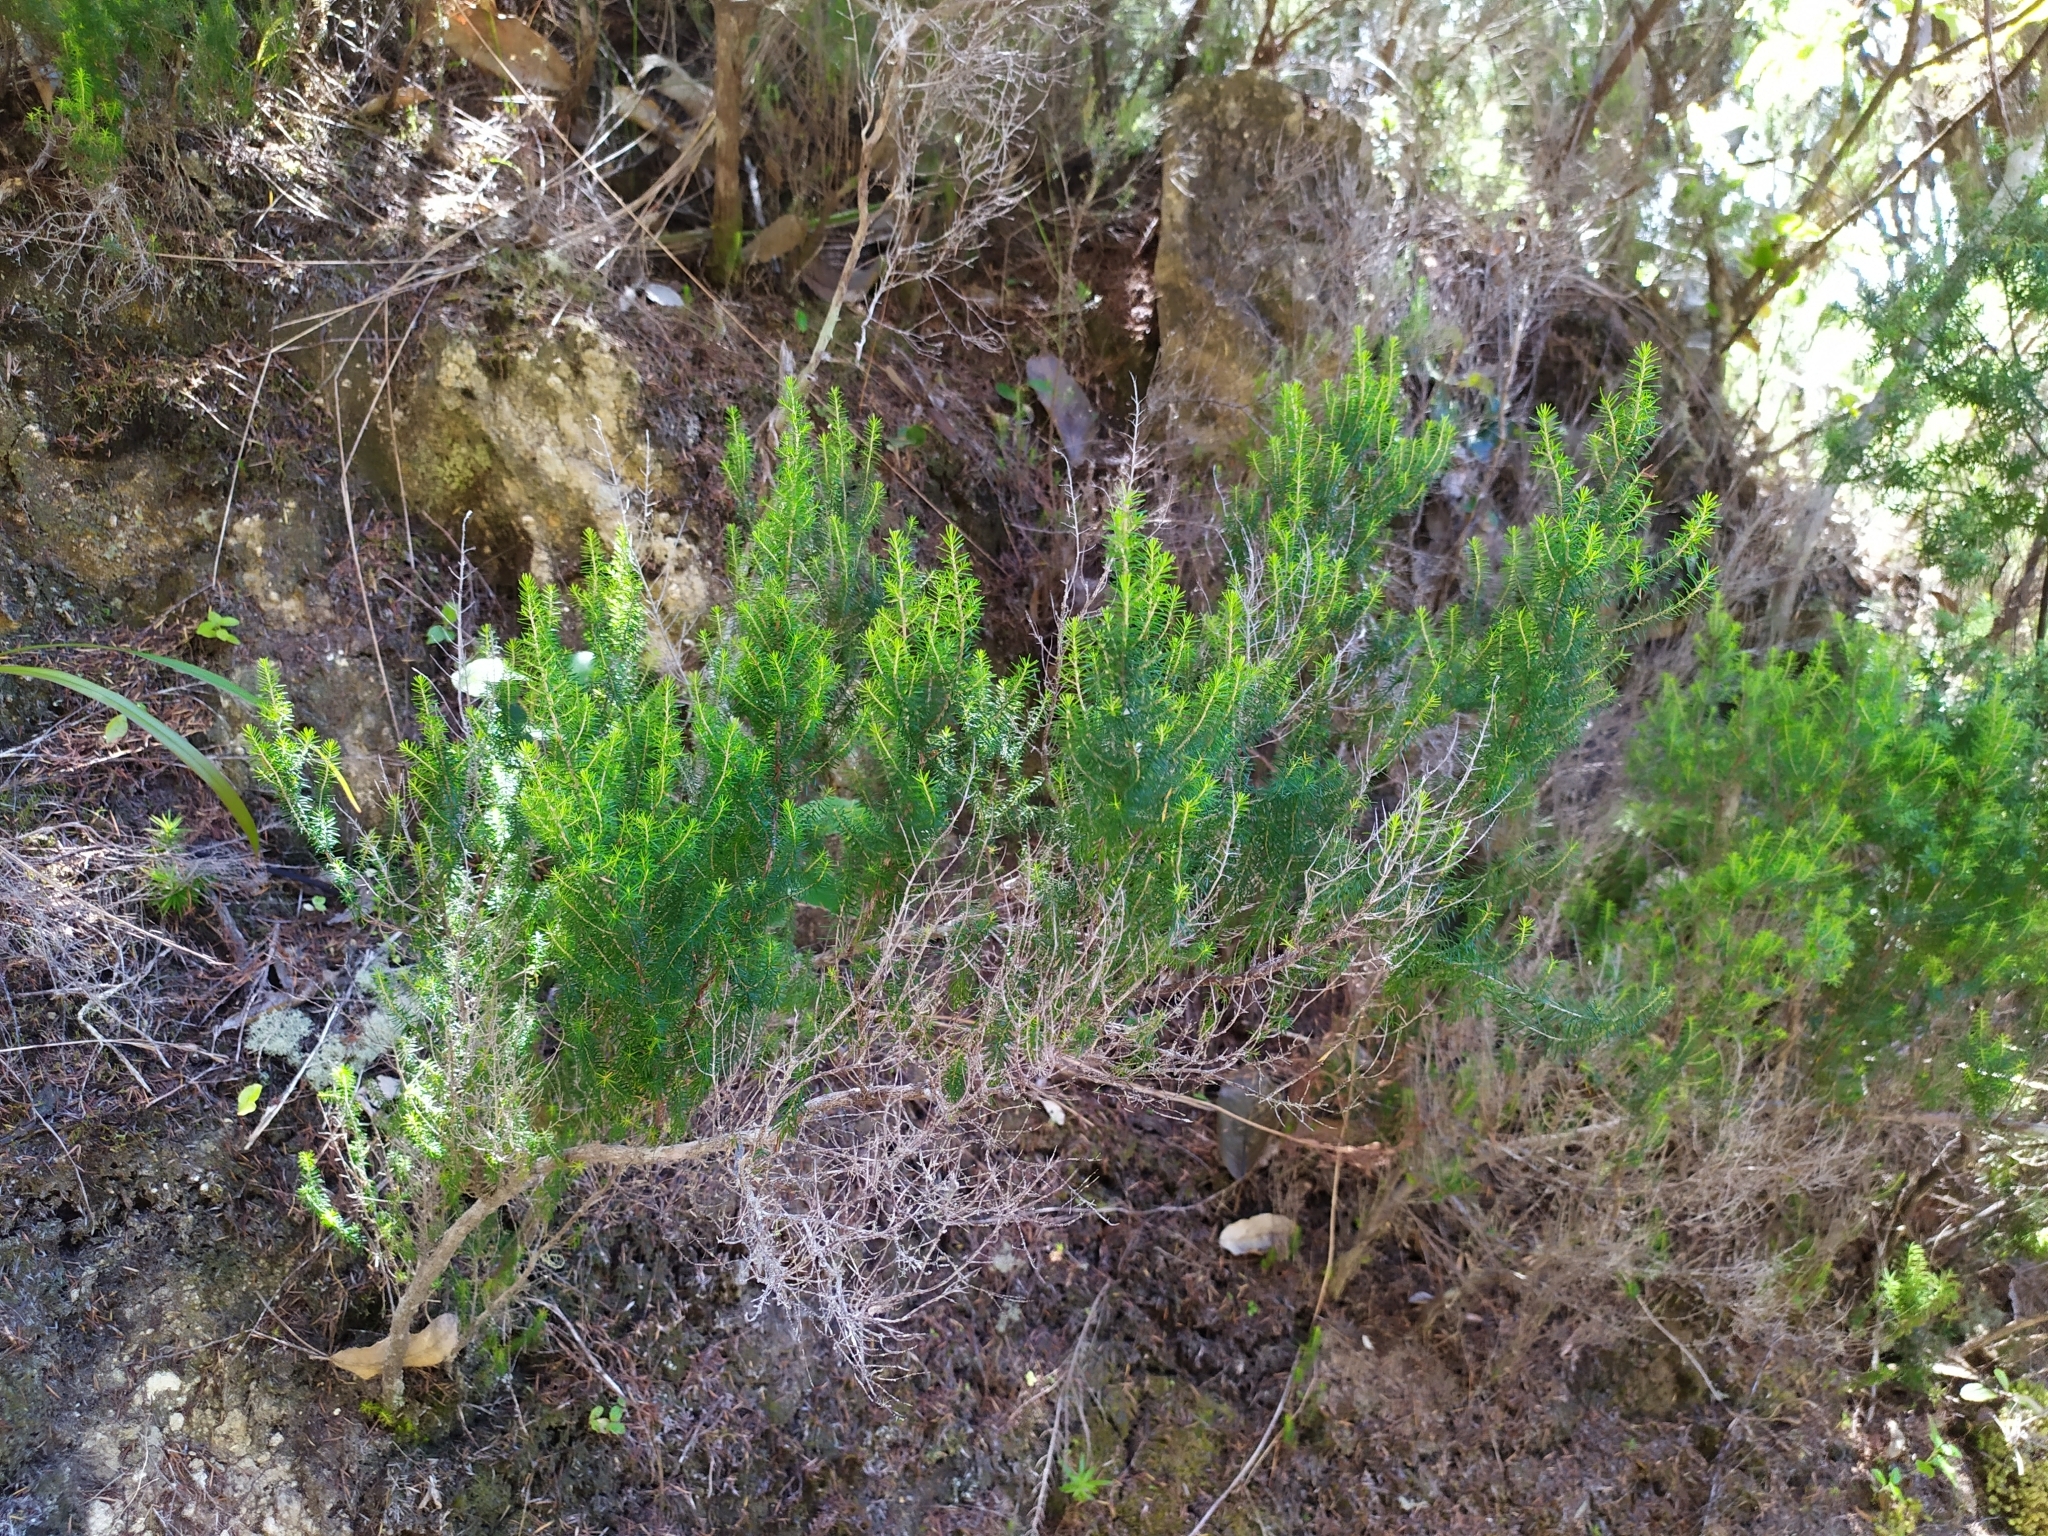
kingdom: Plantae
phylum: Tracheophyta
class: Magnoliopsida
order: Ericales
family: Ericaceae
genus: Erica
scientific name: Erica lusitanica
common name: Spanish heath
